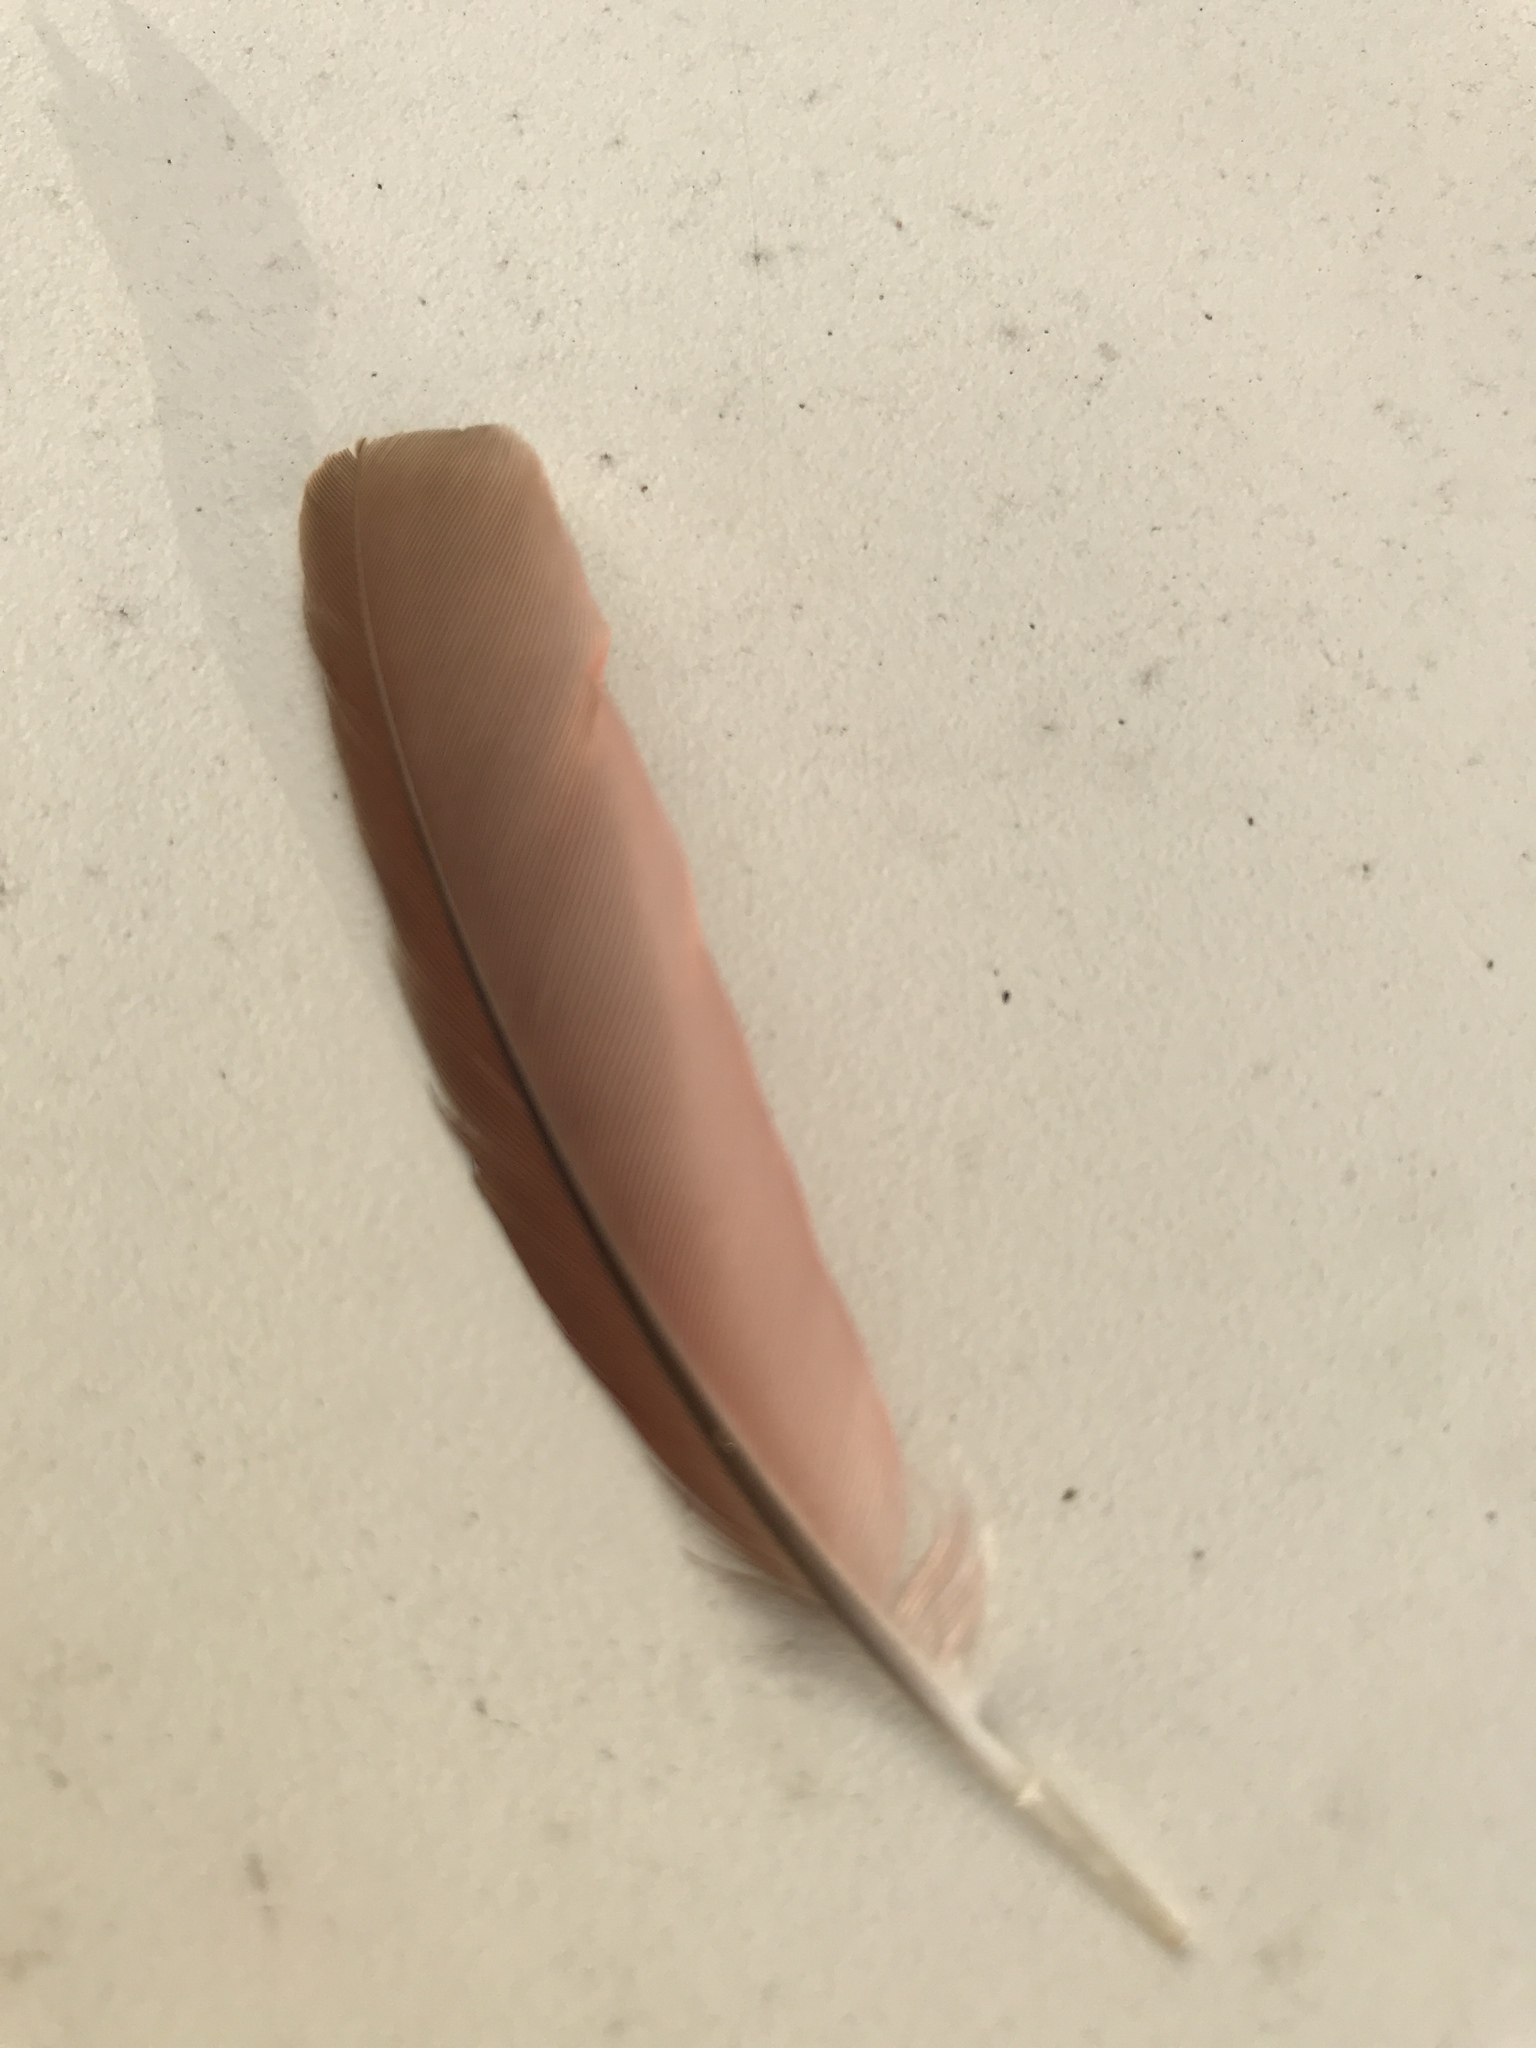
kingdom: Animalia
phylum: Chordata
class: Aves
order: Passeriformes
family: Cardinalidae
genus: Cardinalis
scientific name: Cardinalis cardinalis
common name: Northern cardinal
